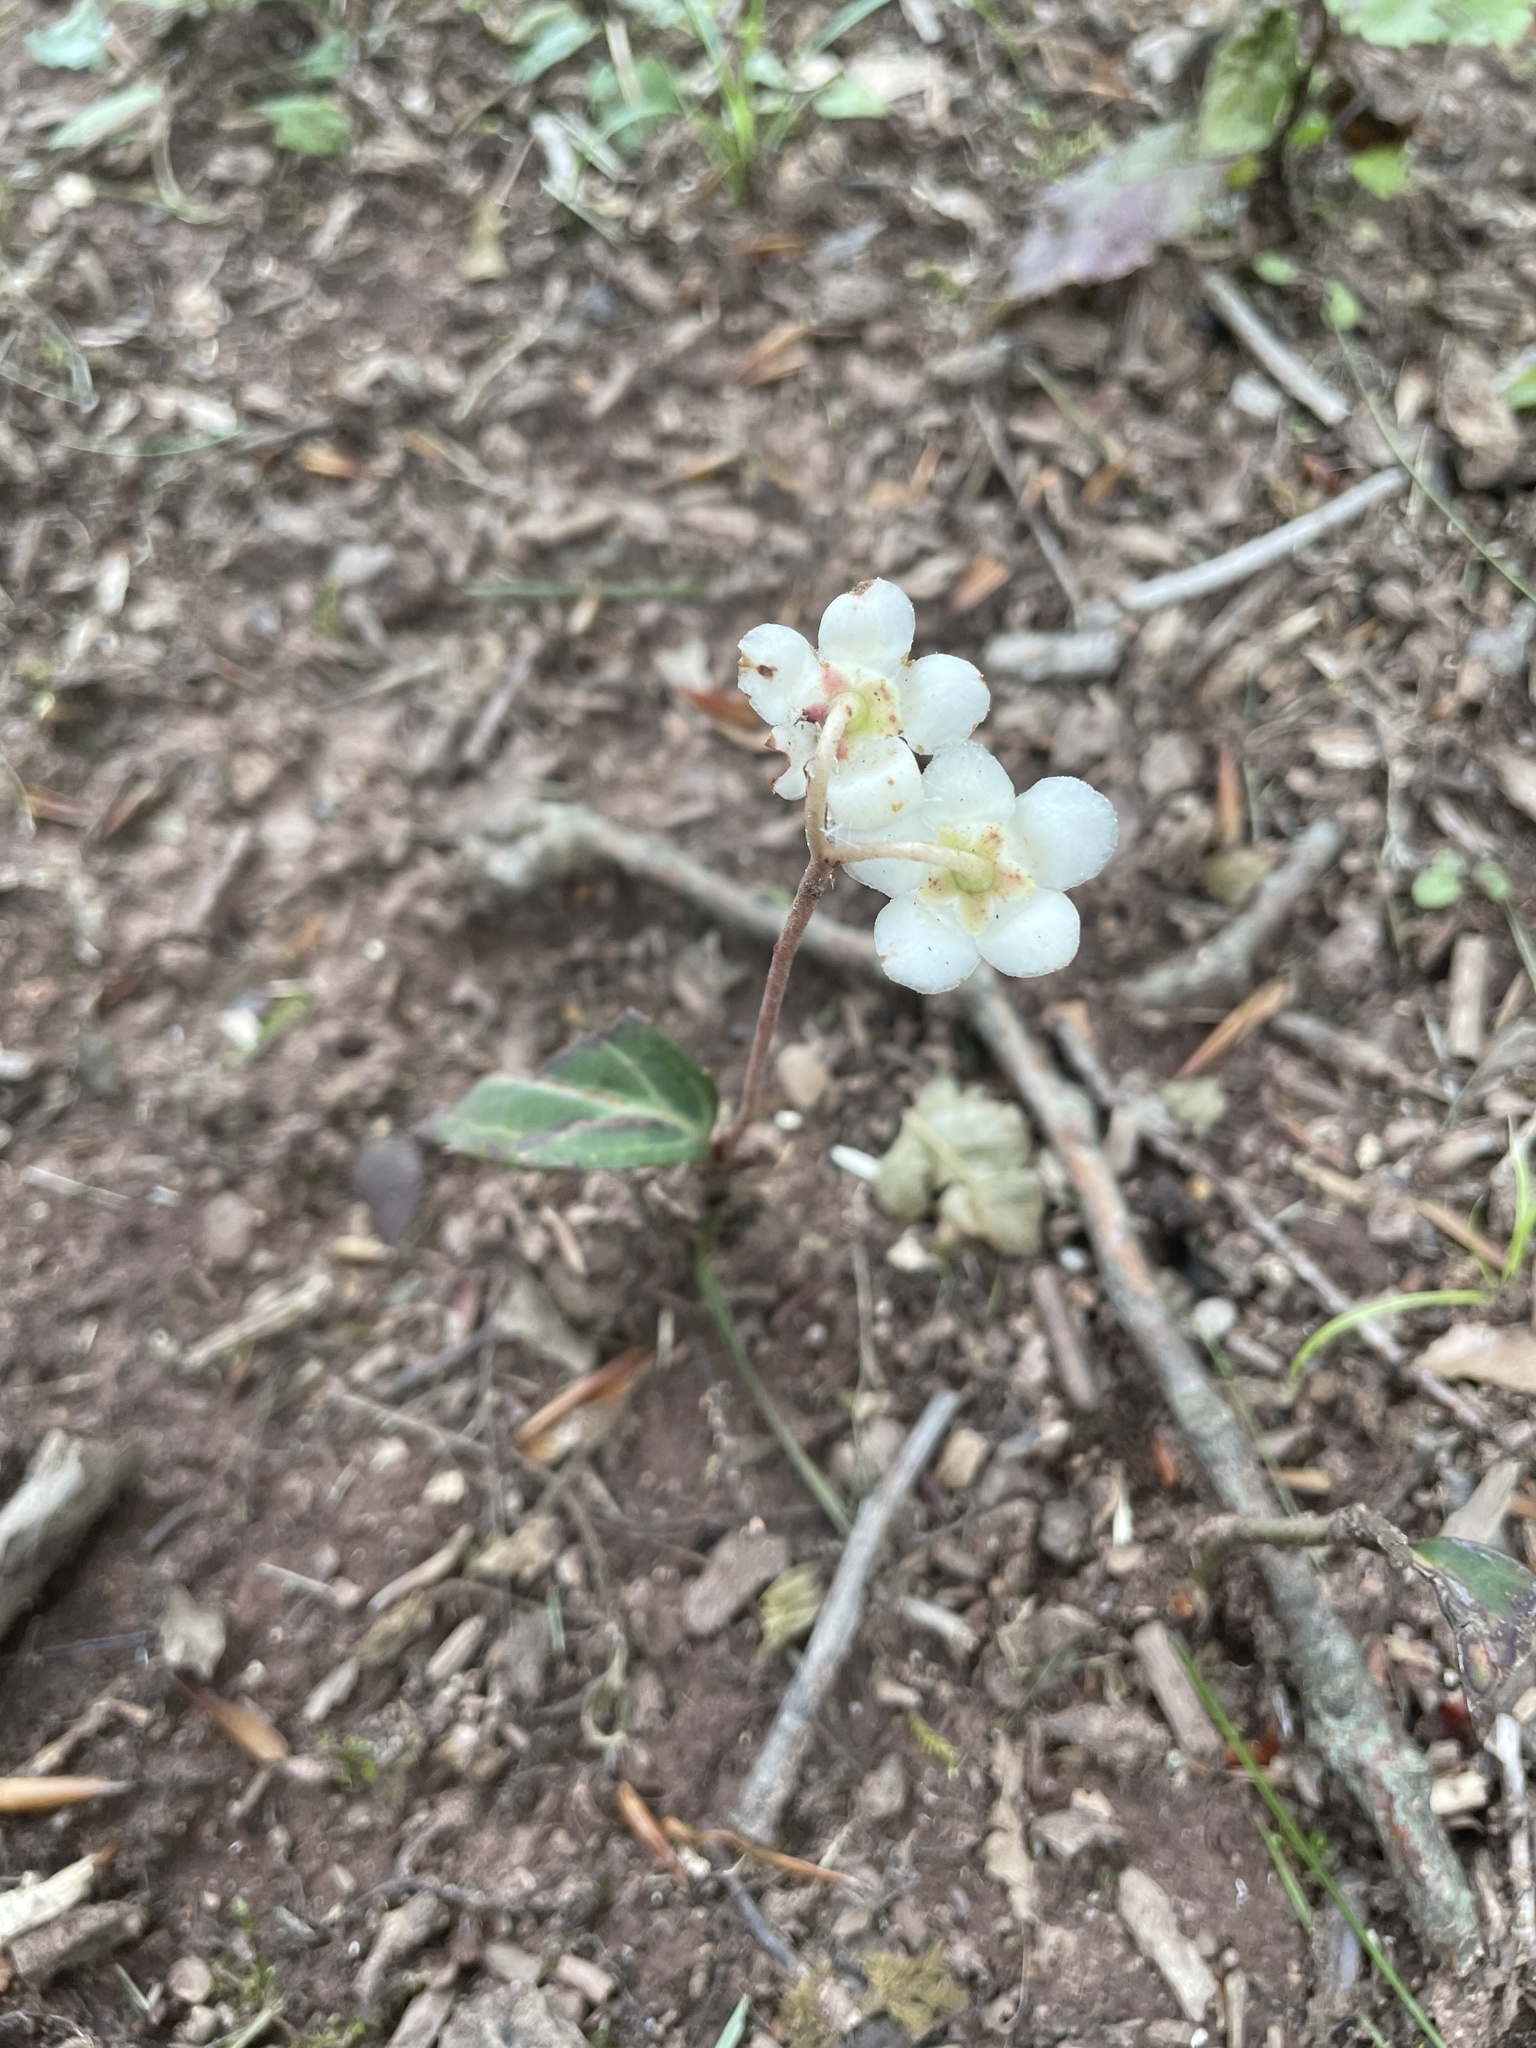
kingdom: Plantae
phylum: Tracheophyta
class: Magnoliopsida
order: Ericales
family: Ericaceae
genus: Chimaphila
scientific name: Chimaphila maculata
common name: Spotted pipsissewa
